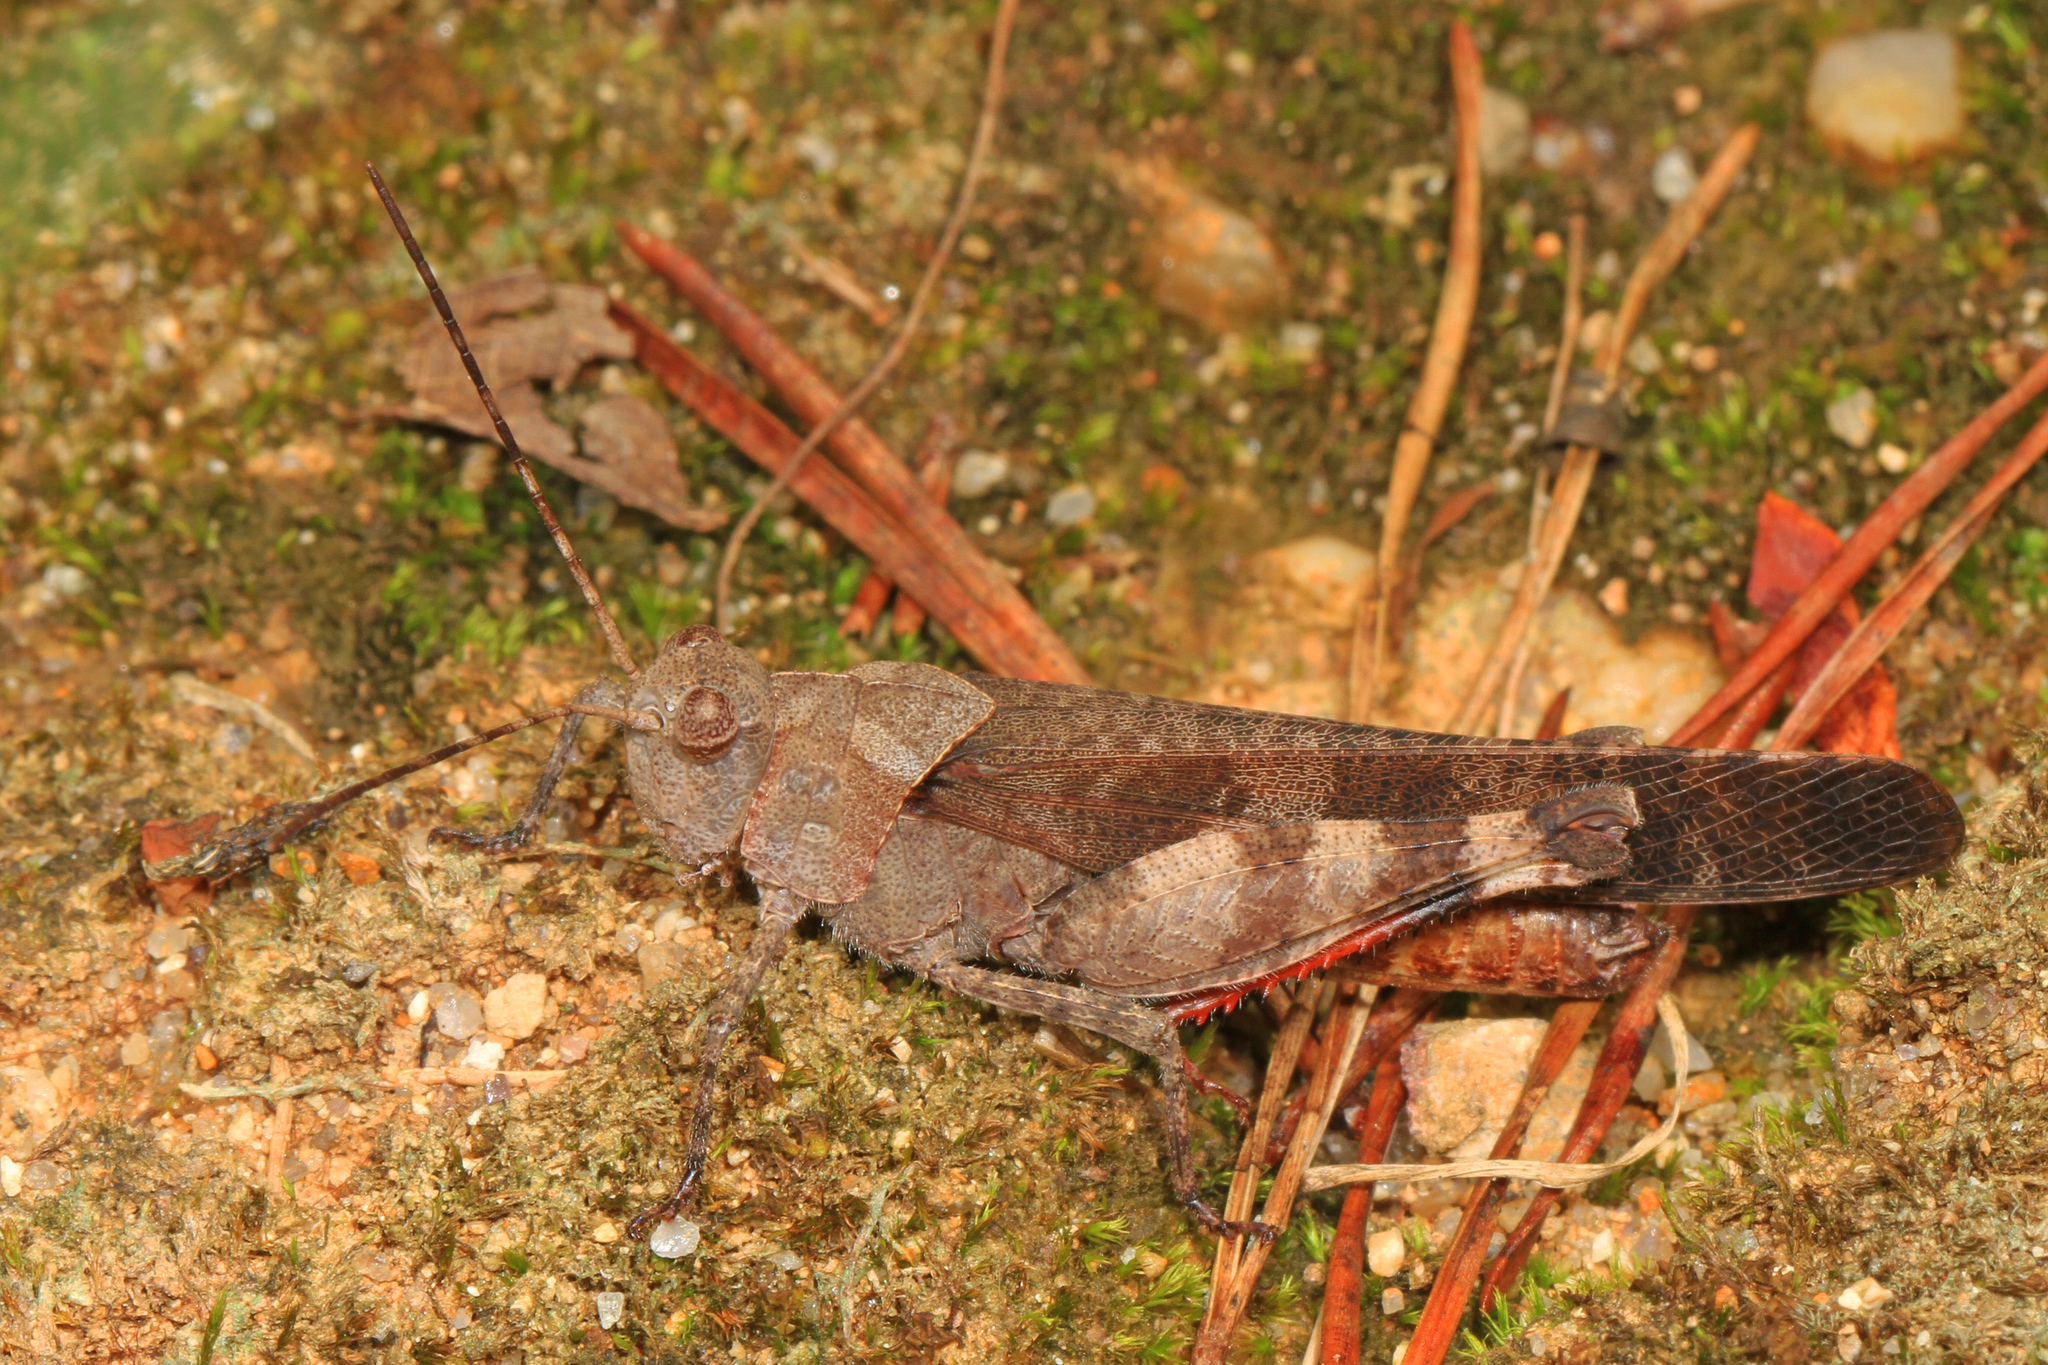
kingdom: Animalia
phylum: Arthropoda
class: Insecta
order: Orthoptera
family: Acrididae
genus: Spharagemon
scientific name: Spharagemon bolli
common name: Boll's grasshopper
